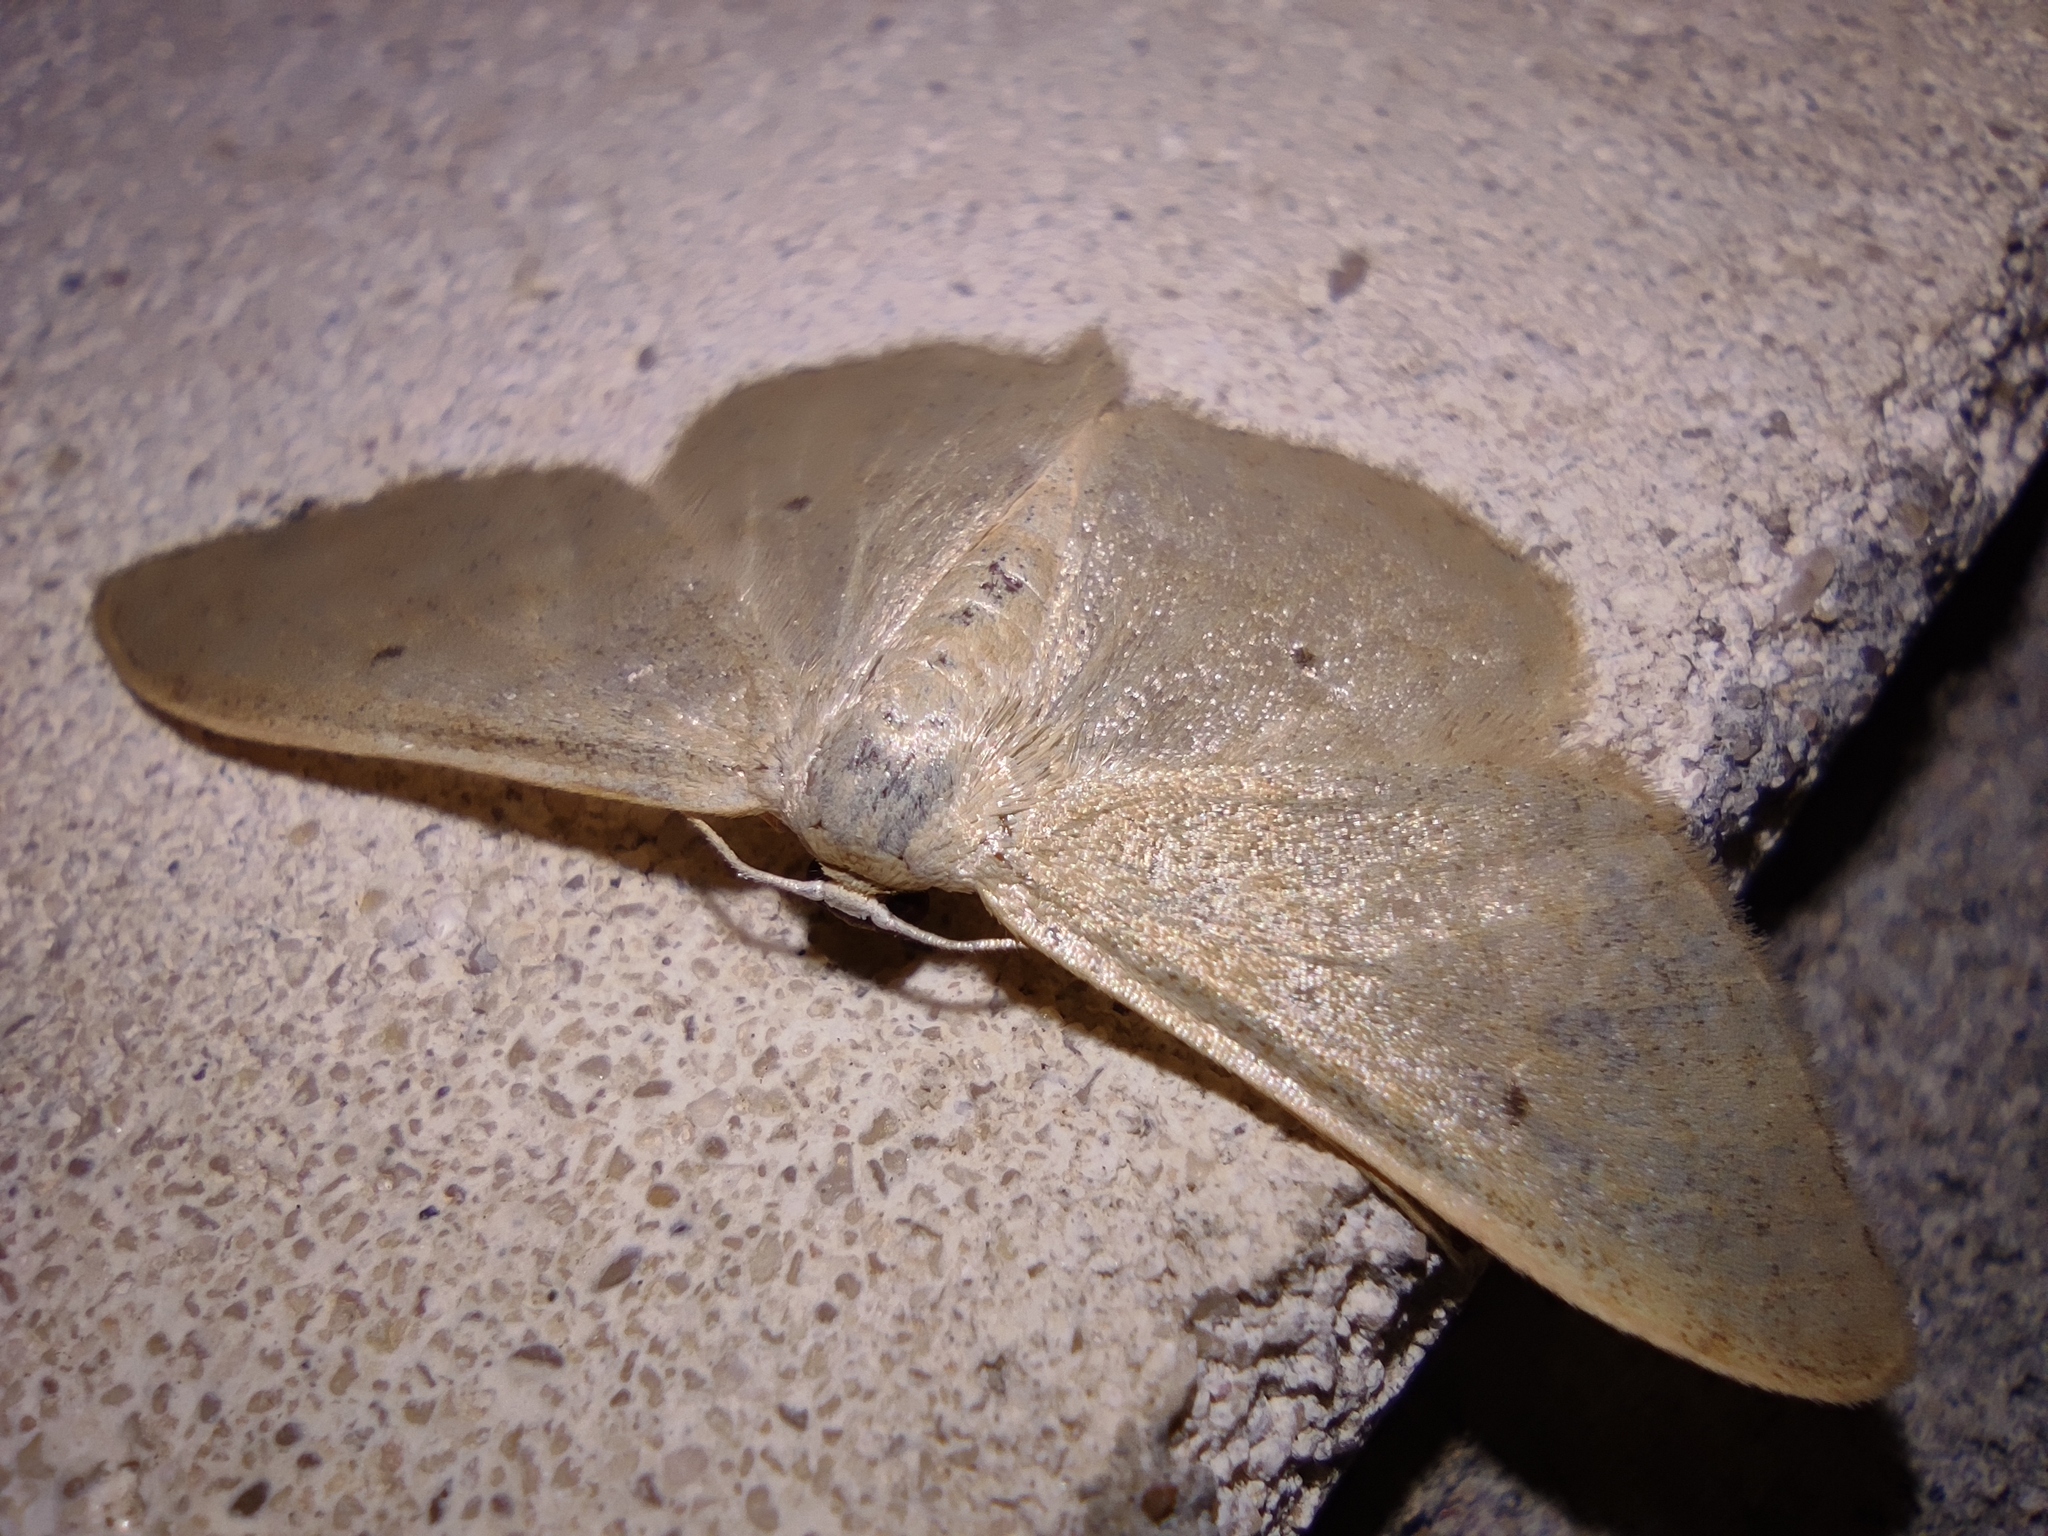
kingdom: Animalia
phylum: Arthropoda
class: Insecta
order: Lepidoptera
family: Geometridae
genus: Idaea
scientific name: Idaea straminata
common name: Plain wave
